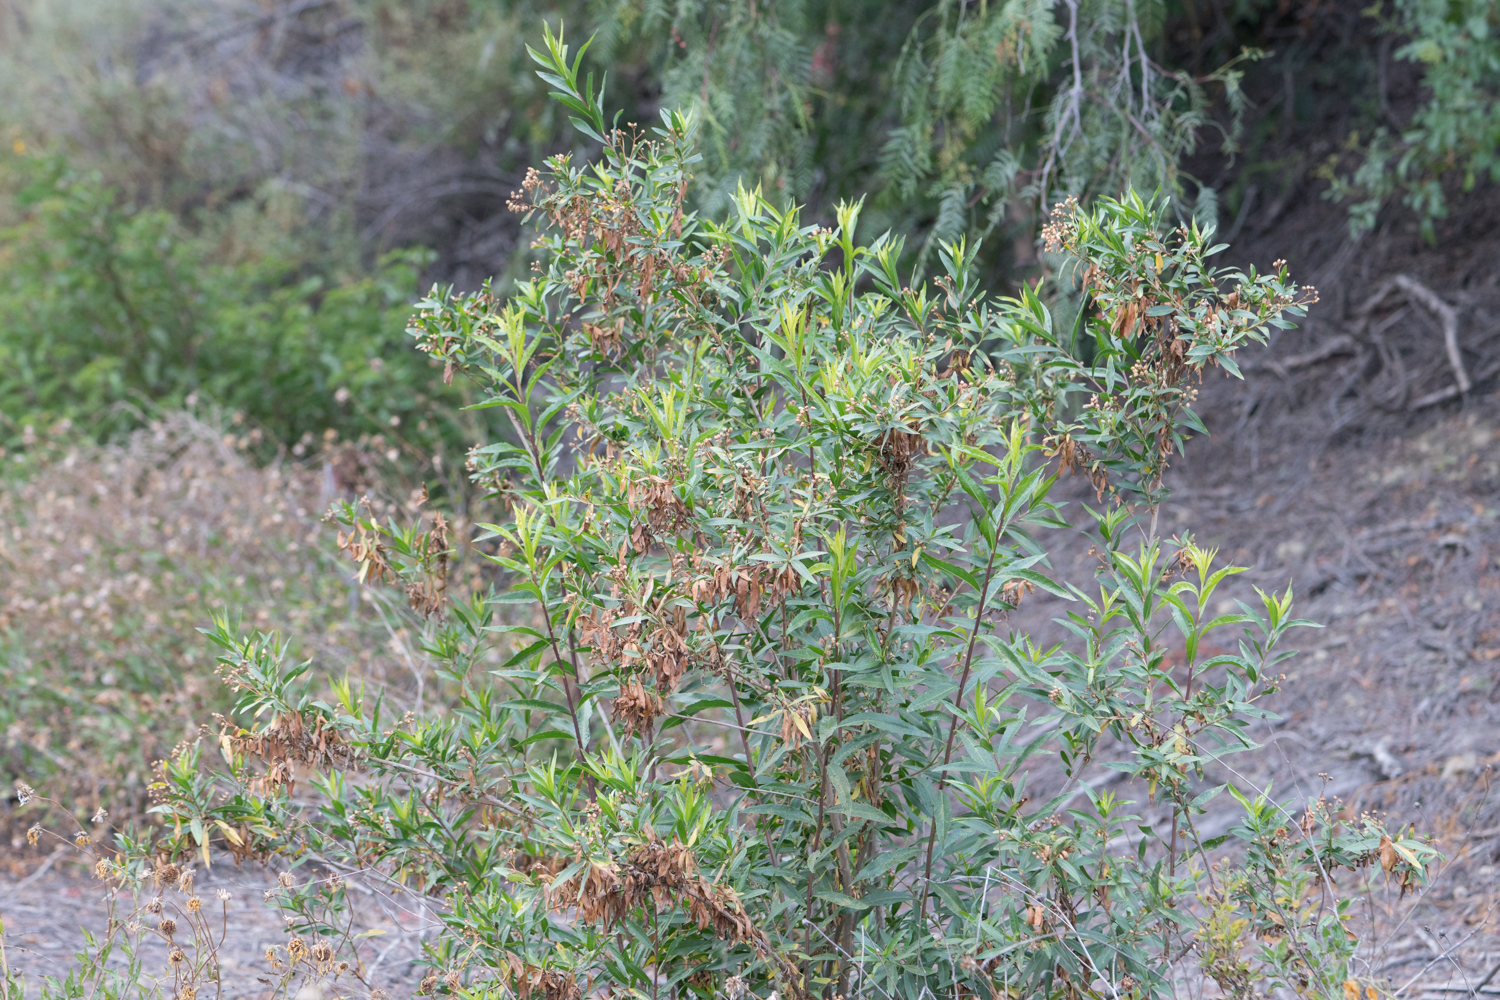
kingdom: Plantae
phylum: Tracheophyta
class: Magnoliopsida
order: Asterales
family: Asteraceae
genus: Baccharis
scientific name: Baccharis salicifolia
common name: Sticky baccharis
